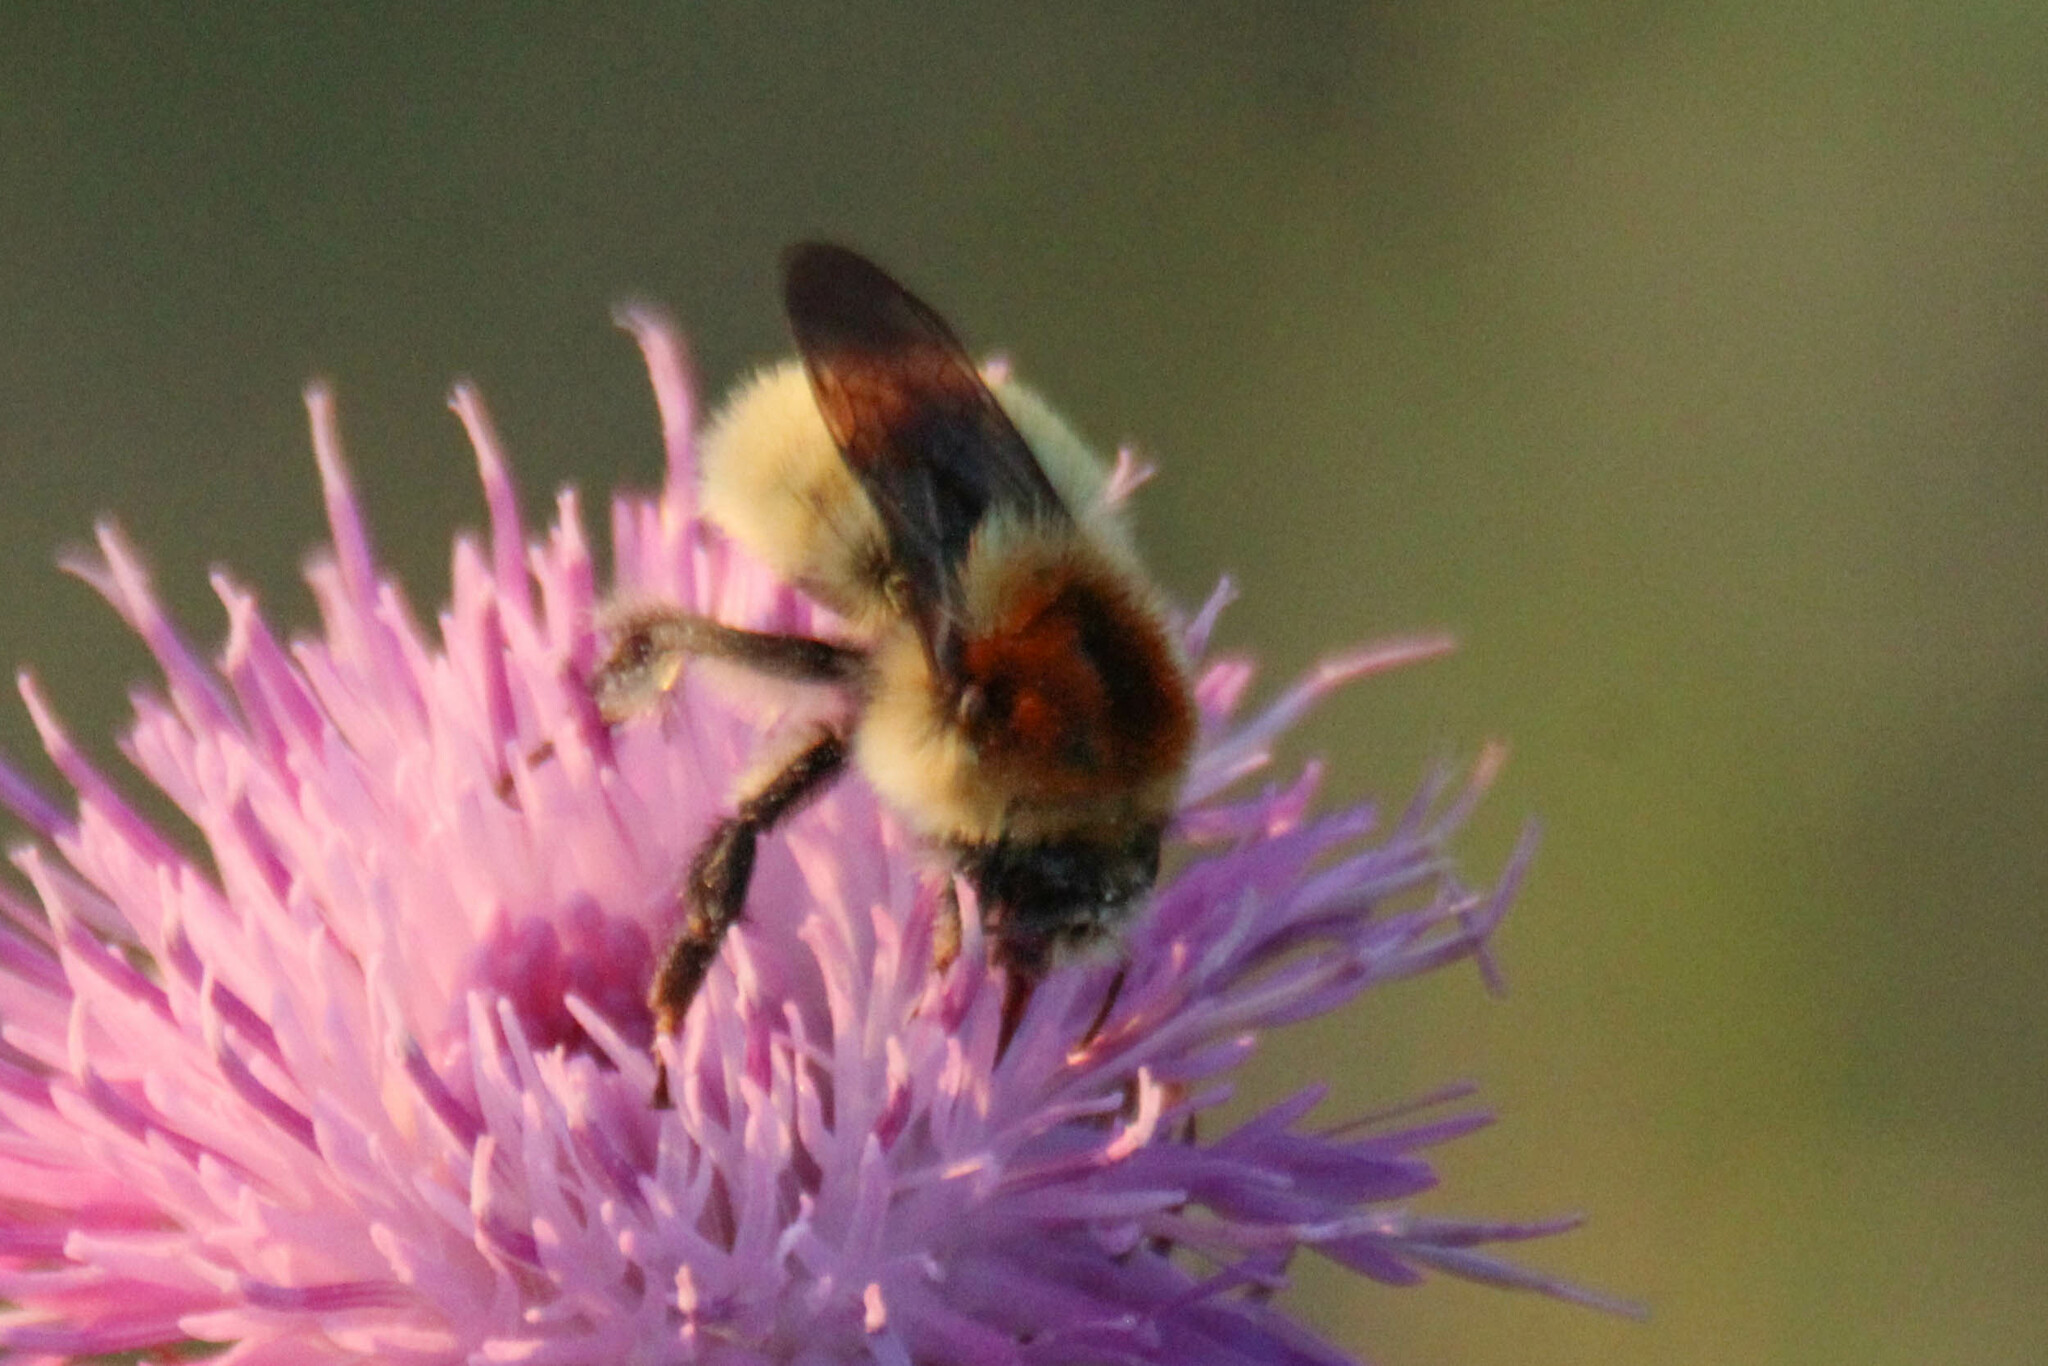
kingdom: Animalia
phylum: Arthropoda
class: Insecta
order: Hymenoptera
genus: Thoracobombus
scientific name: Thoracobombus
